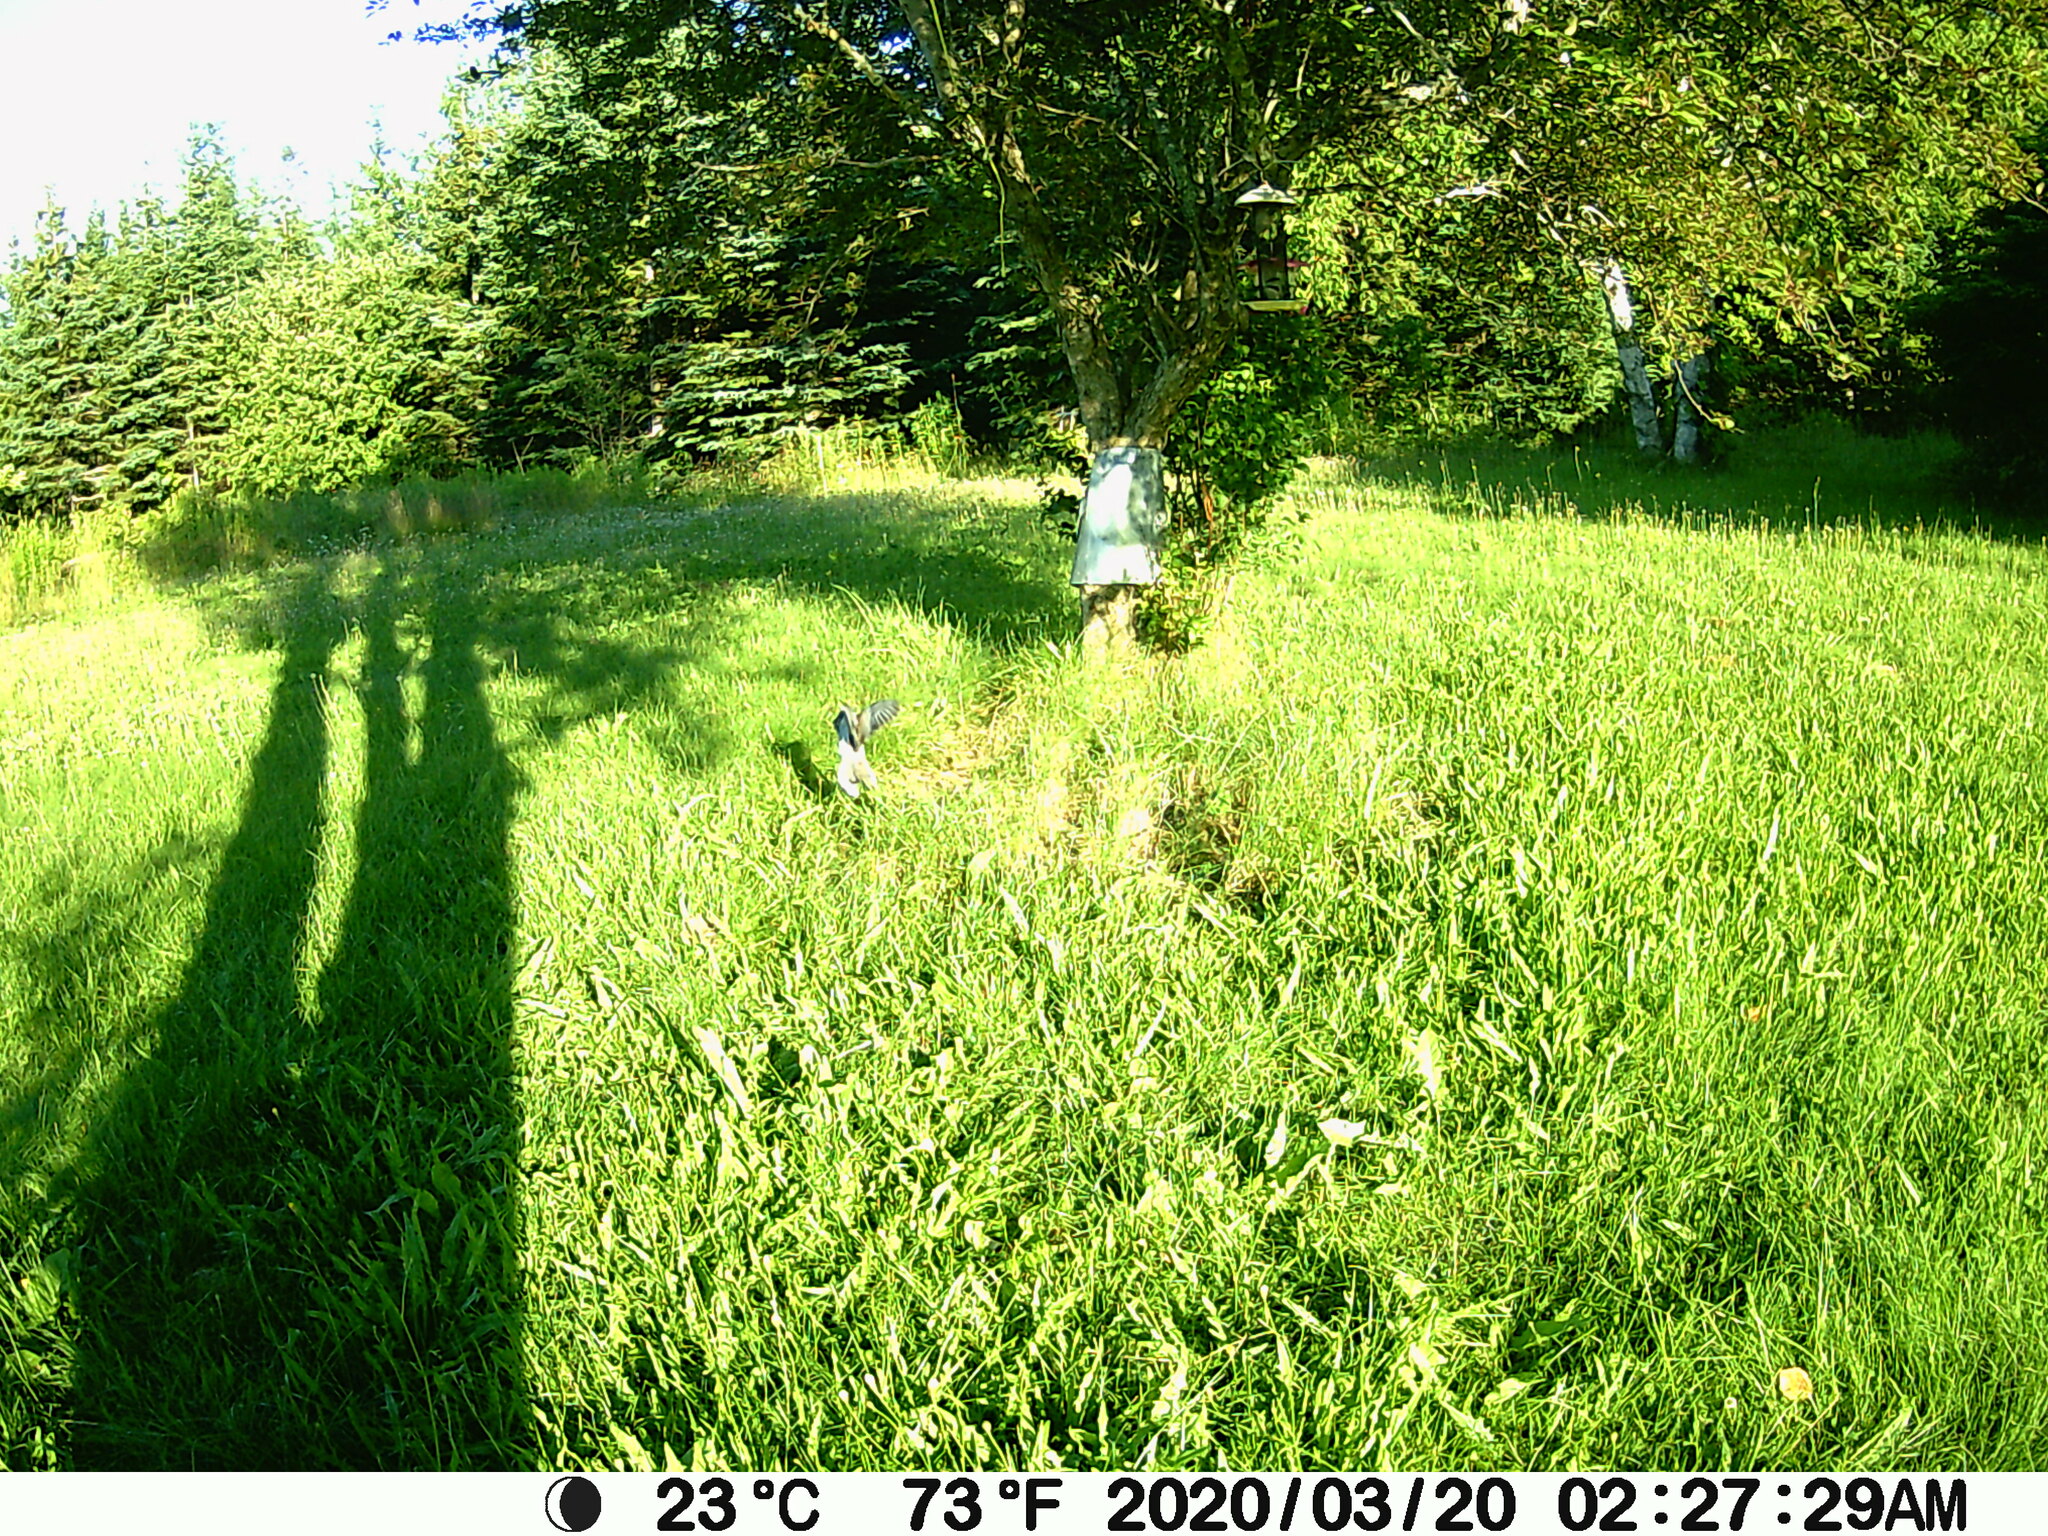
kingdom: Animalia
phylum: Chordata
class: Aves
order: Columbiformes
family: Columbidae
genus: Zenaida
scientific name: Zenaida macroura
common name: Mourning dove
